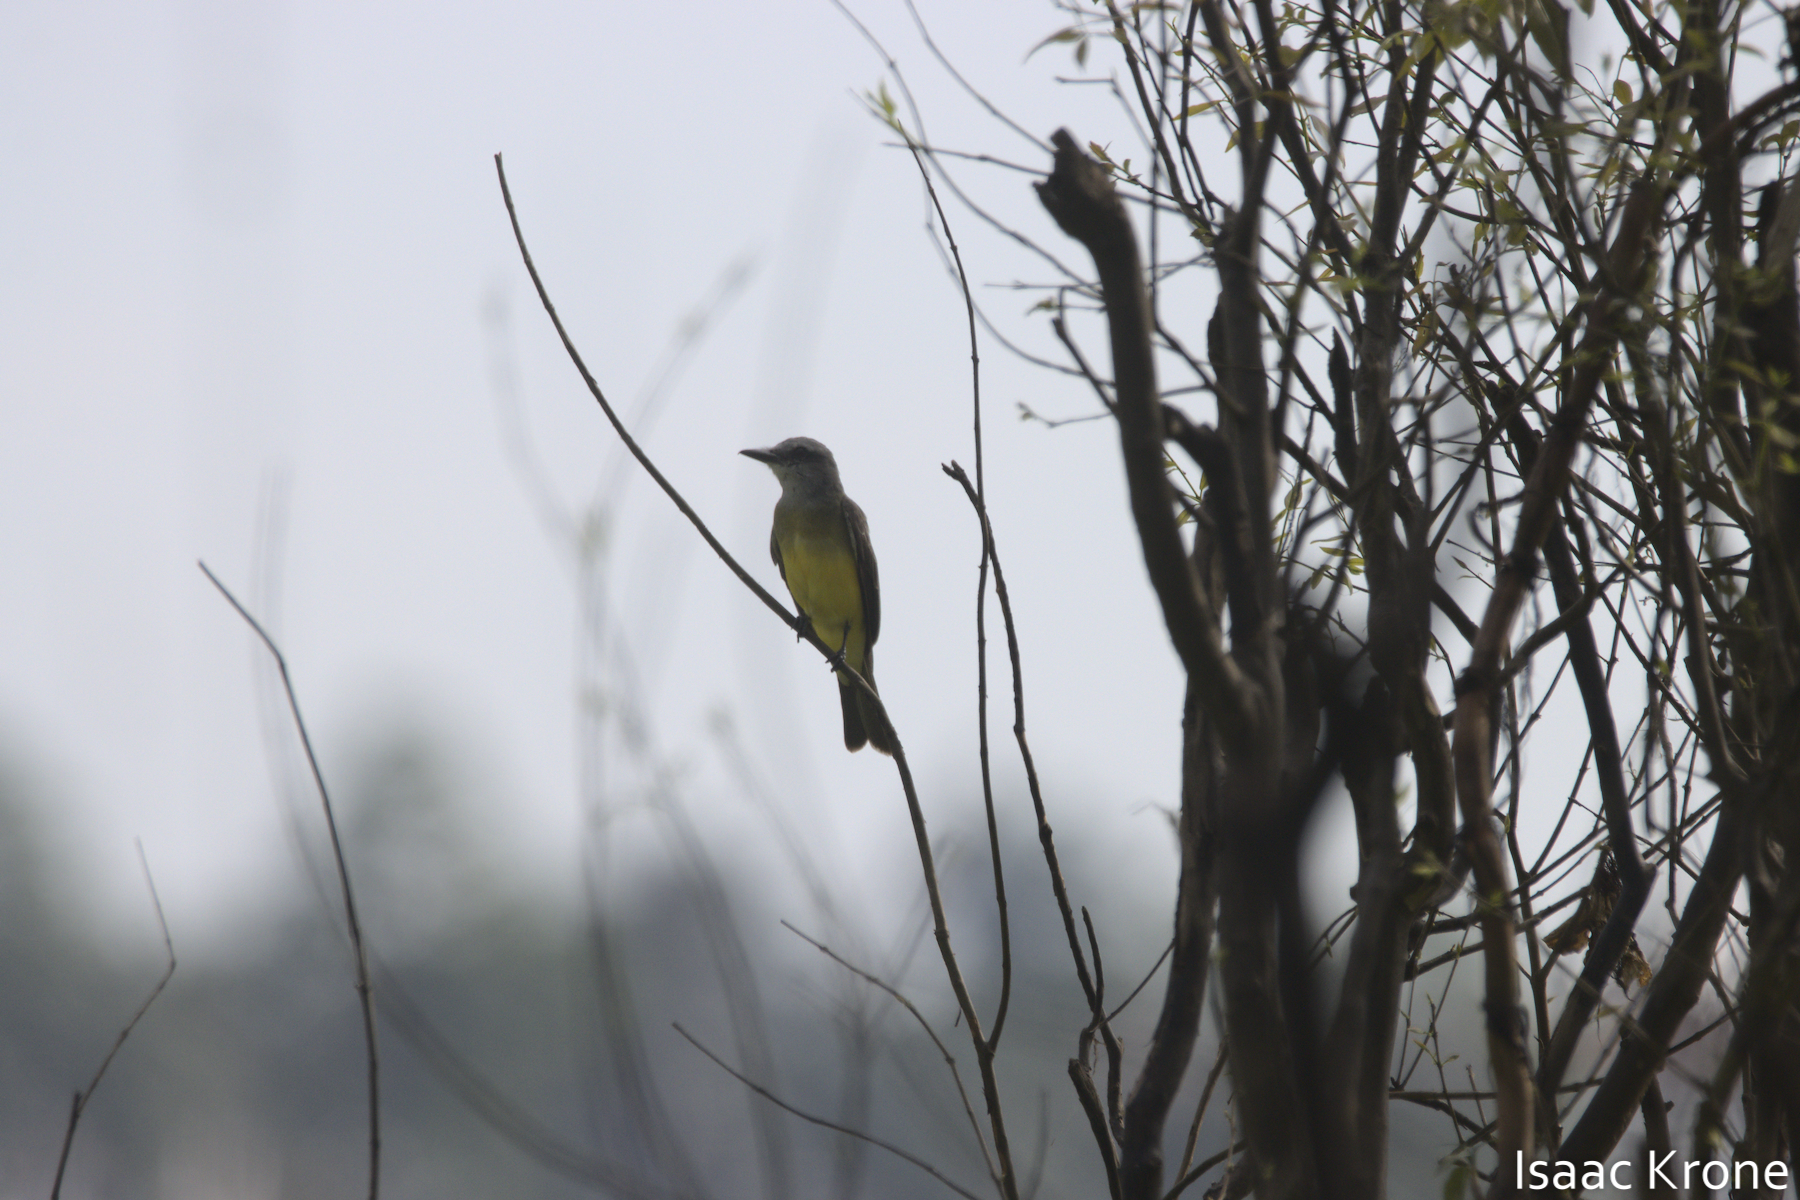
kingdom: Animalia
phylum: Chordata
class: Aves
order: Passeriformes
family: Tyrannidae
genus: Tyrannus
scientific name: Tyrannus melancholicus
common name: Tropical kingbird
